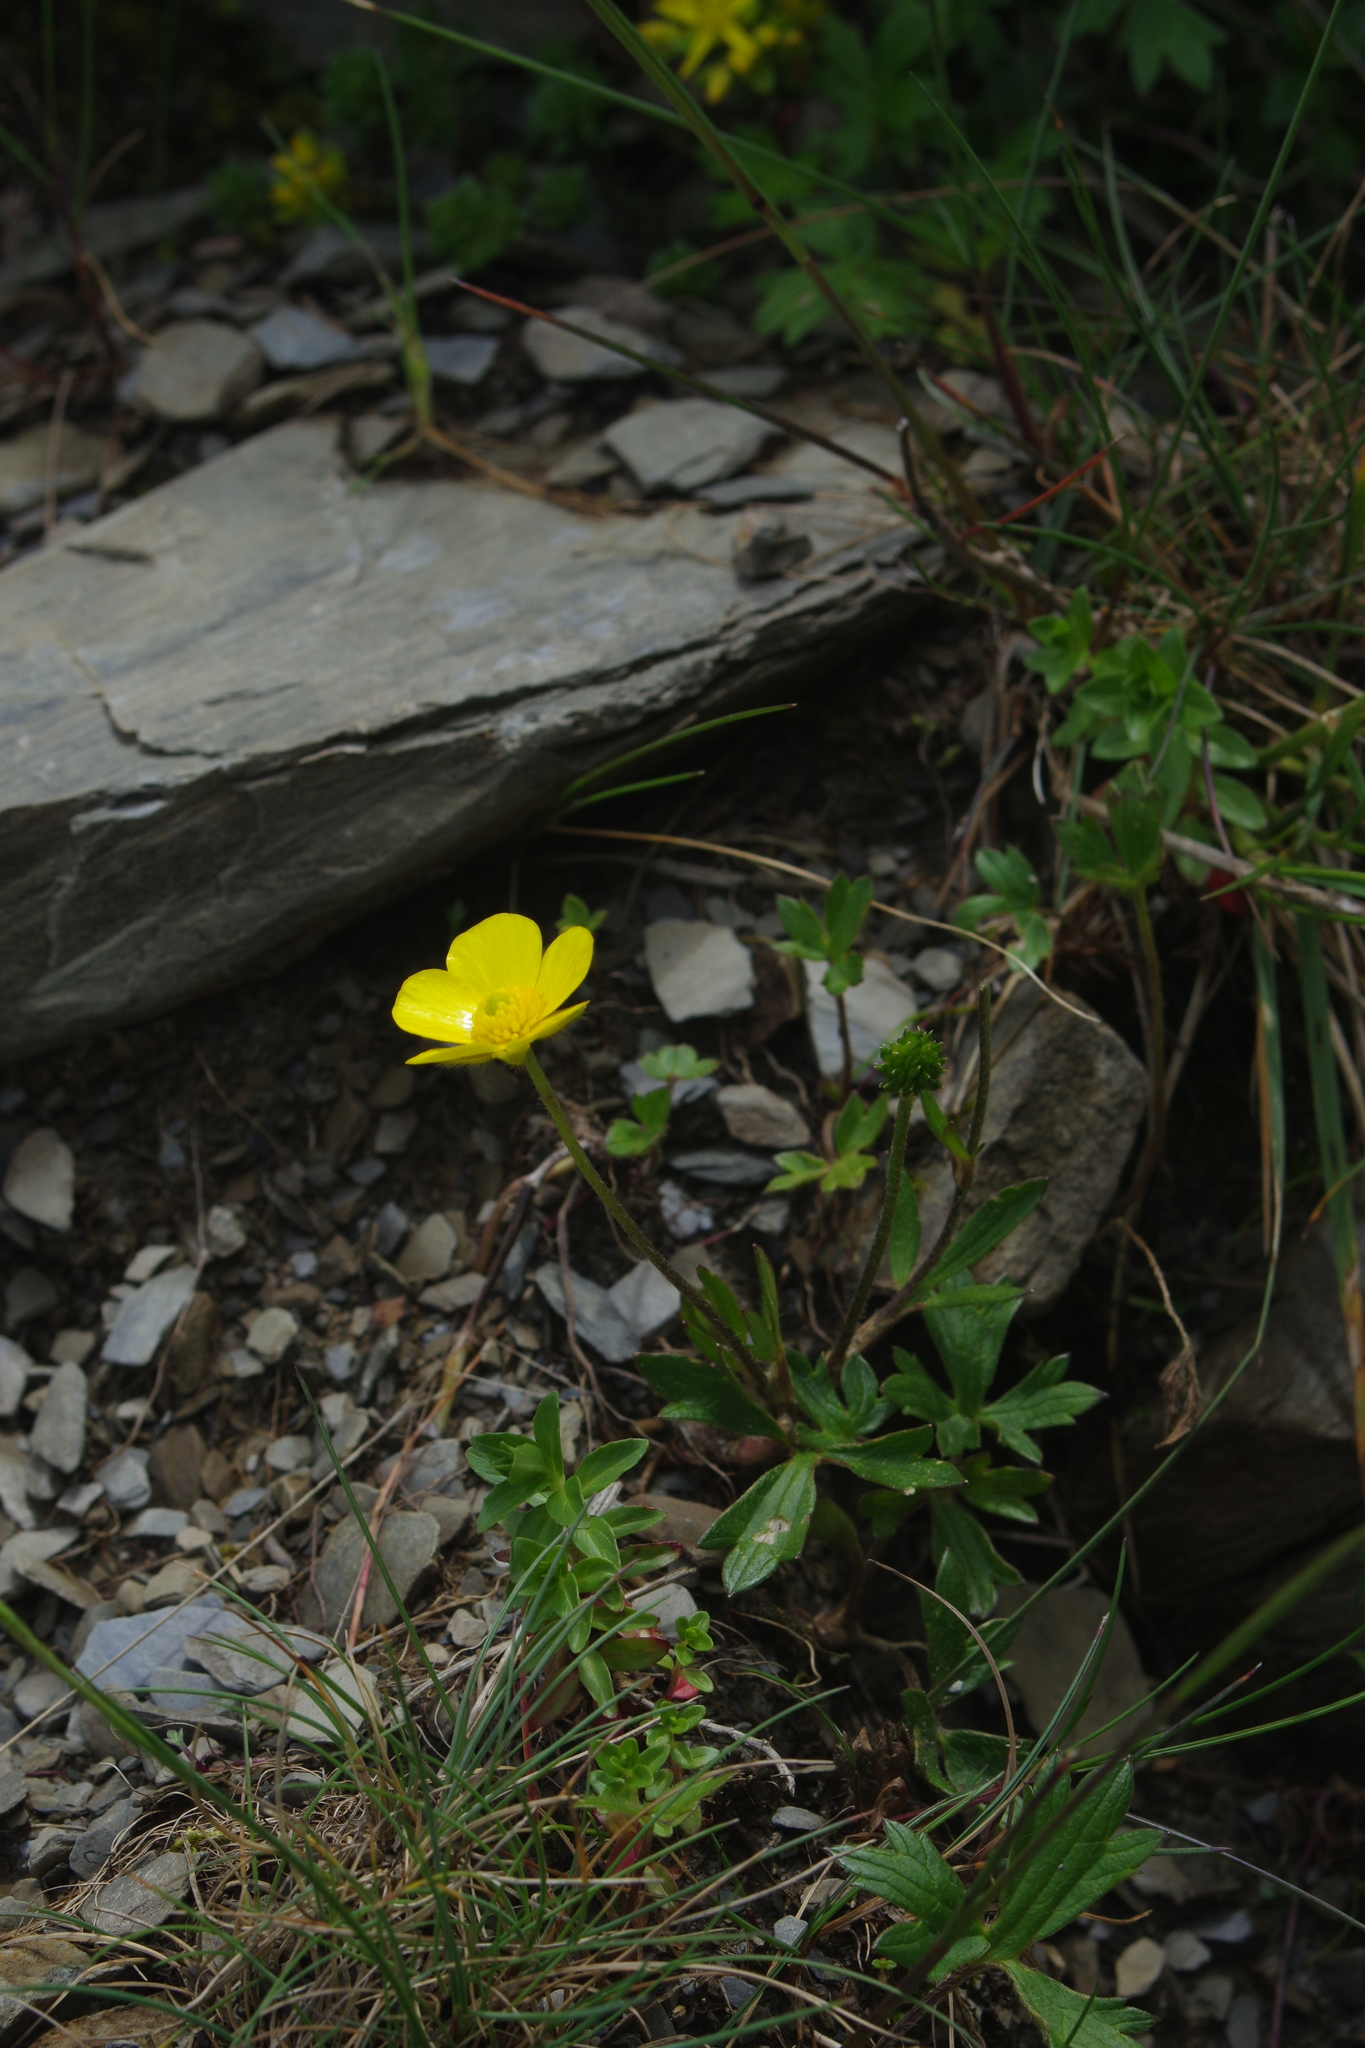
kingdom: Plantae
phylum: Tracheophyta
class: Magnoliopsida
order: Ranunculales
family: Ranunculaceae
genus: Ranunculus
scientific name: Ranunculus formosa-montanus
